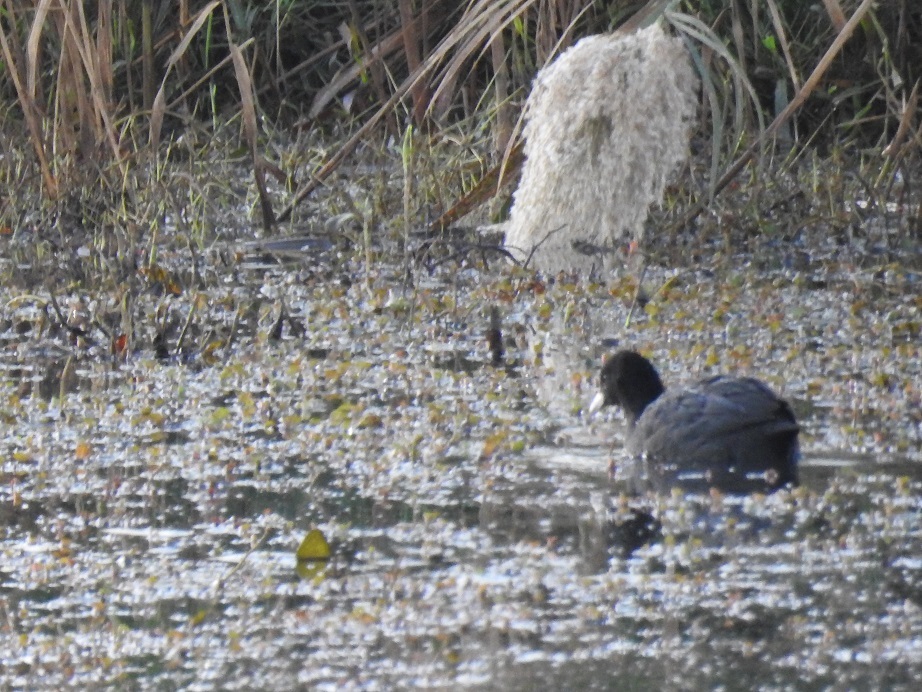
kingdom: Animalia
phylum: Chordata
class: Aves
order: Gruiformes
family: Rallidae
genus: Fulica
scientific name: Fulica atra
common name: Eurasian coot
